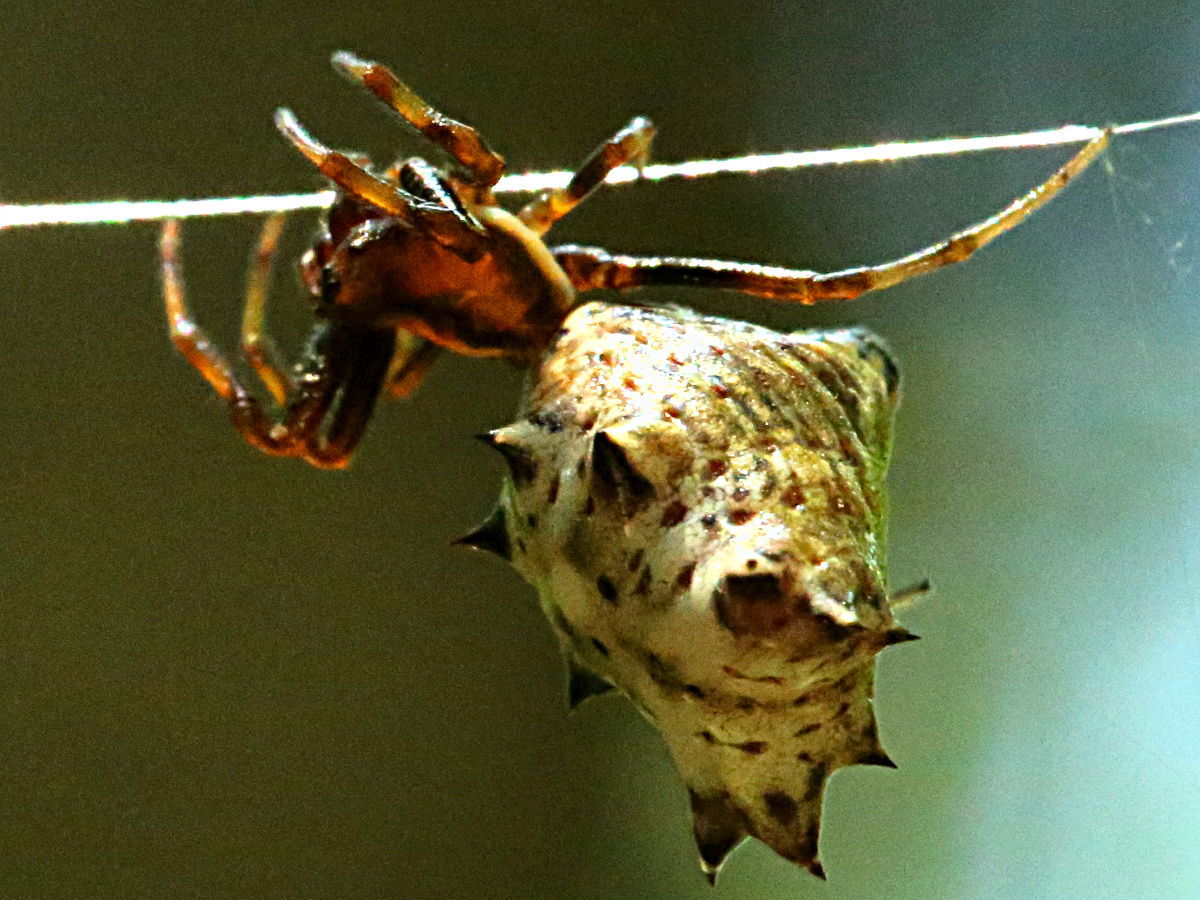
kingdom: Animalia
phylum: Arthropoda
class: Arachnida
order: Araneae
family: Araneidae
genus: Micrathena
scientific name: Micrathena gracilis
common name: Orb weavers
